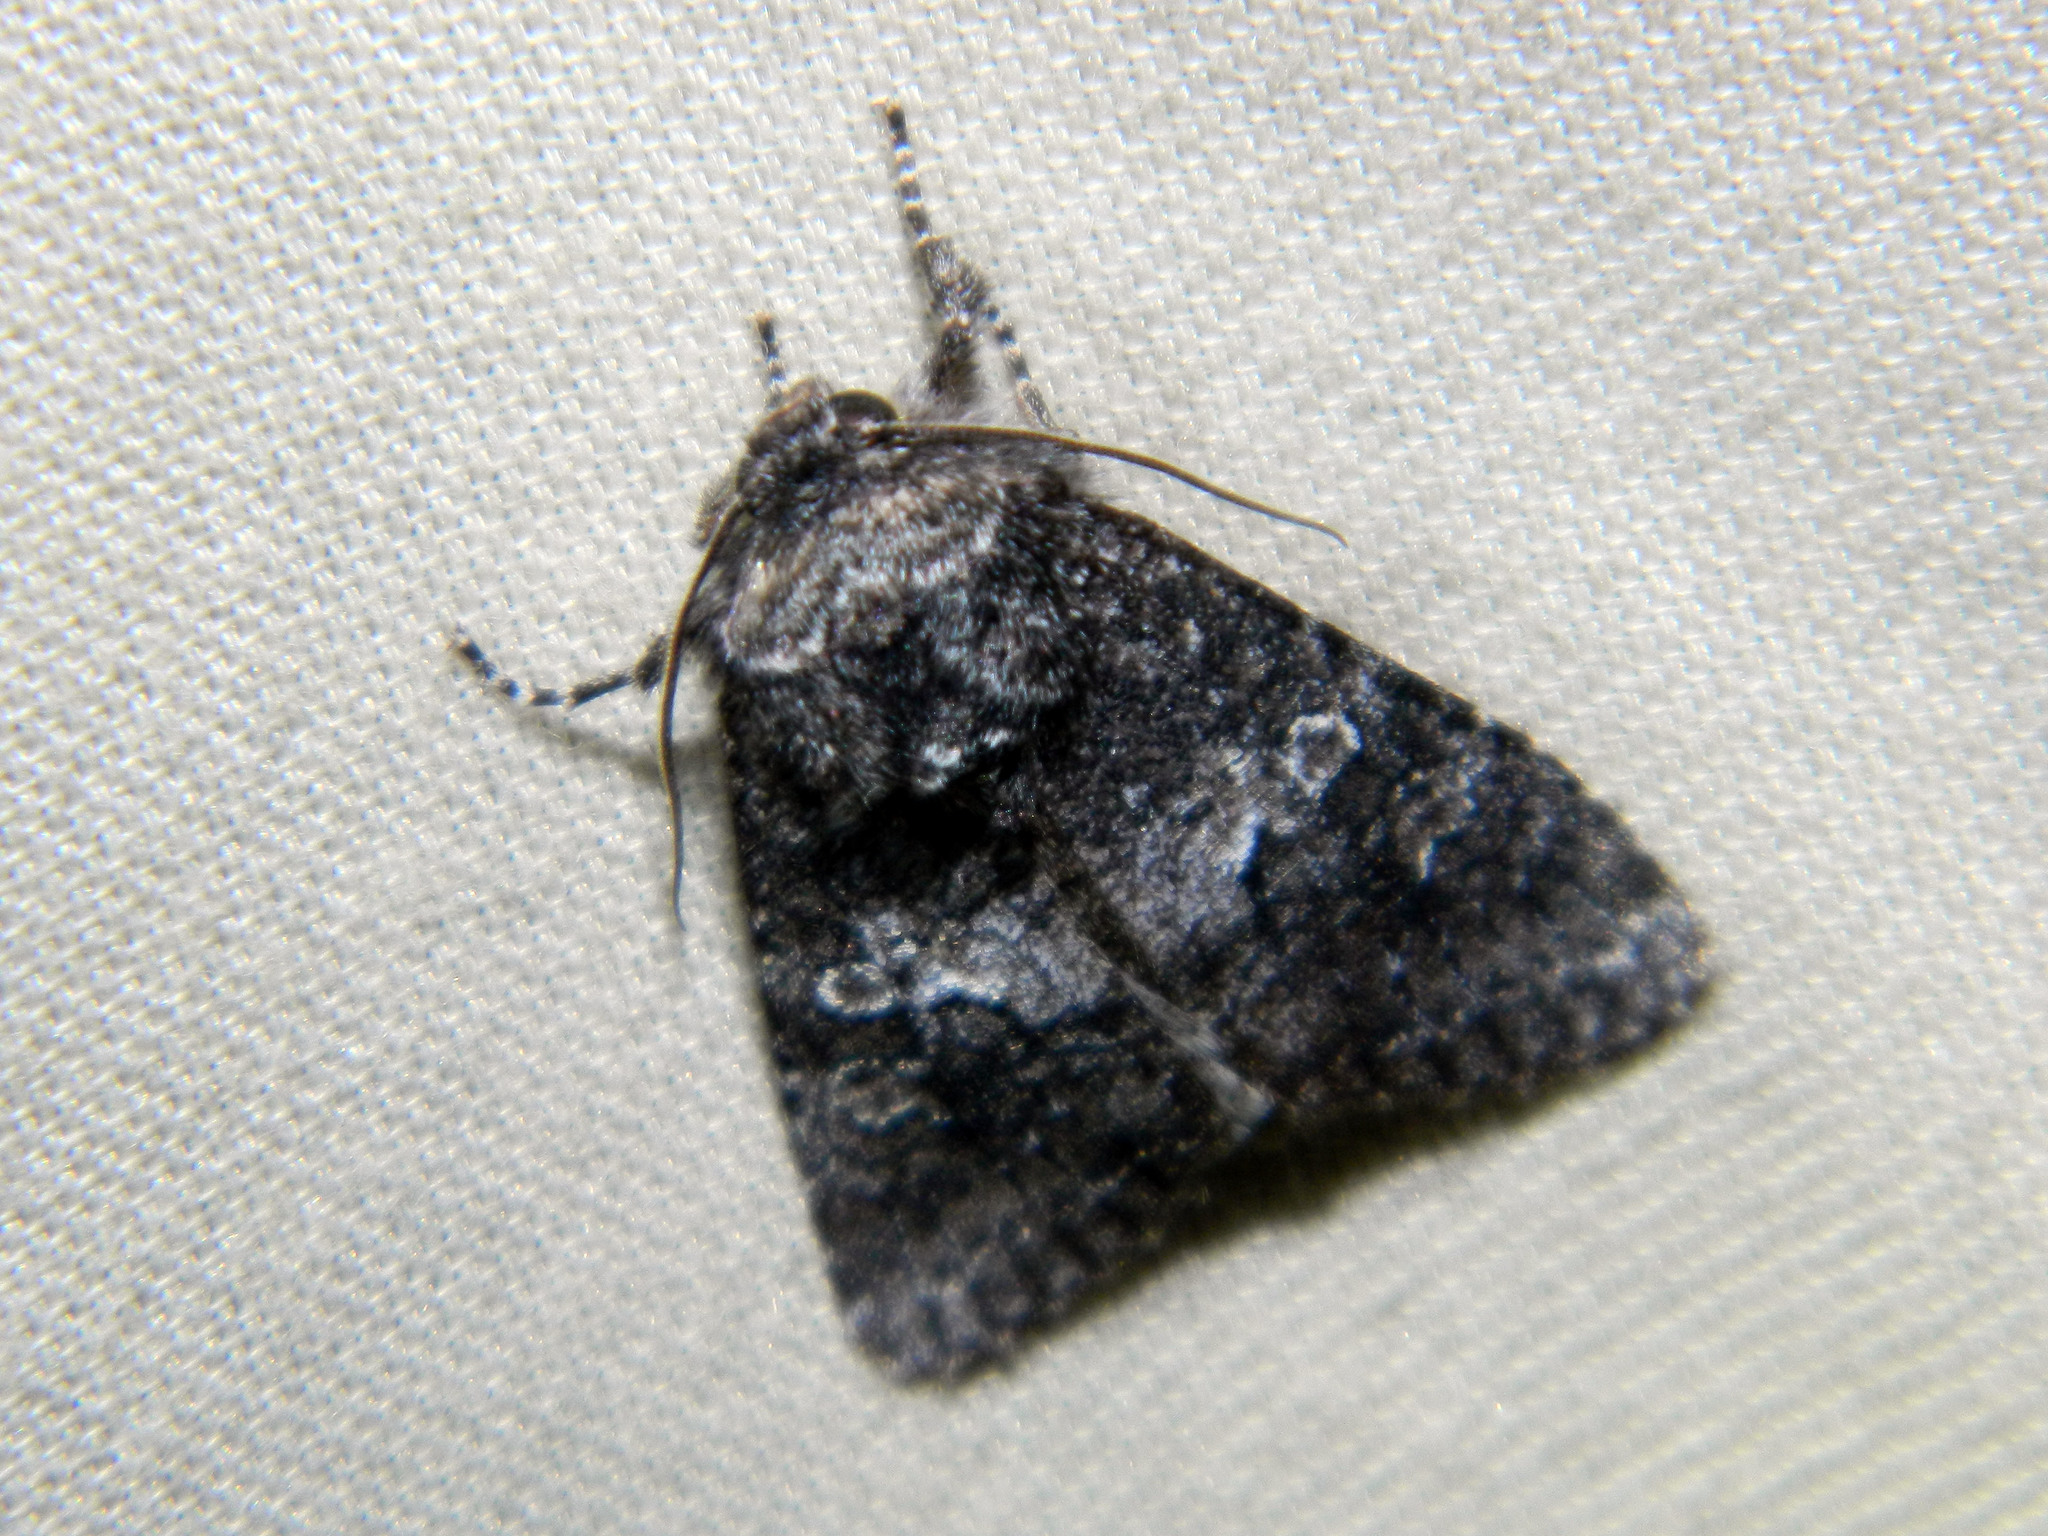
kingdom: Animalia
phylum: Arthropoda
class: Insecta
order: Lepidoptera
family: Noctuidae
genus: Egira
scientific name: Egira dolosa
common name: Lined black aspen cat.
